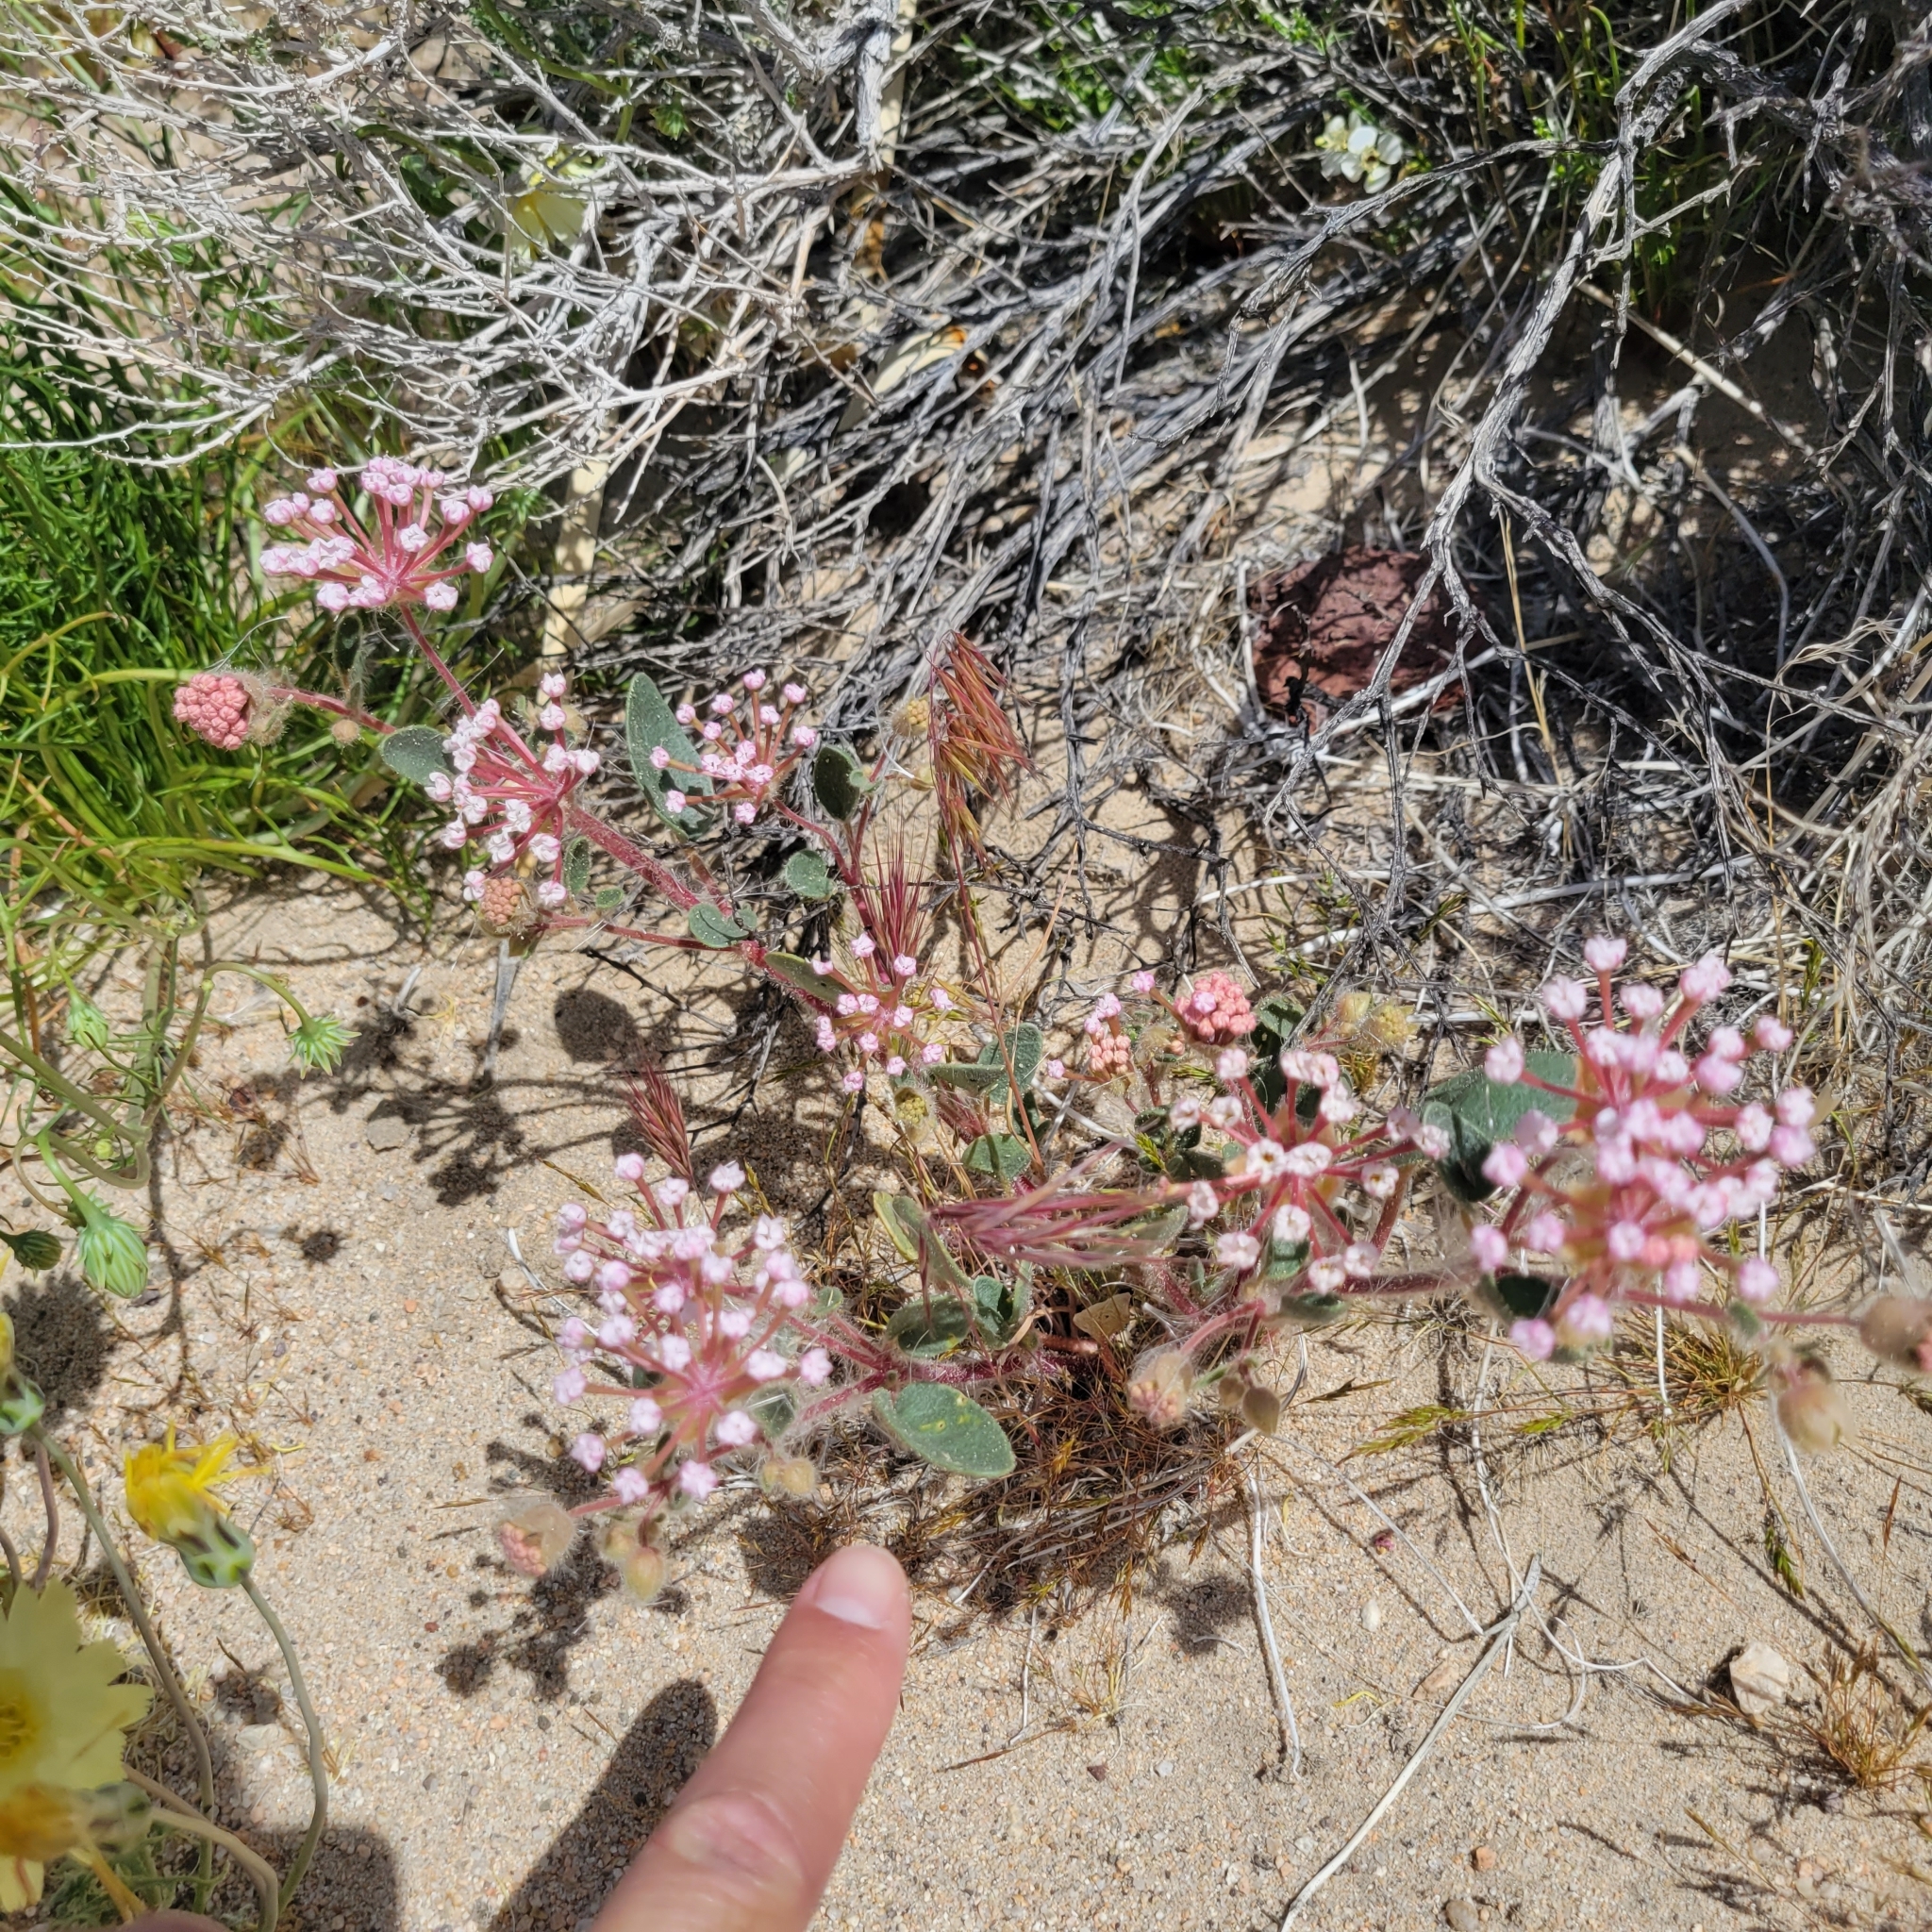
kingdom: Plantae
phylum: Tracheophyta
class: Magnoliopsida
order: Caryophyllales
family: Nyctaginaceae
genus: Abronia
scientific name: Abronia pogonantha
